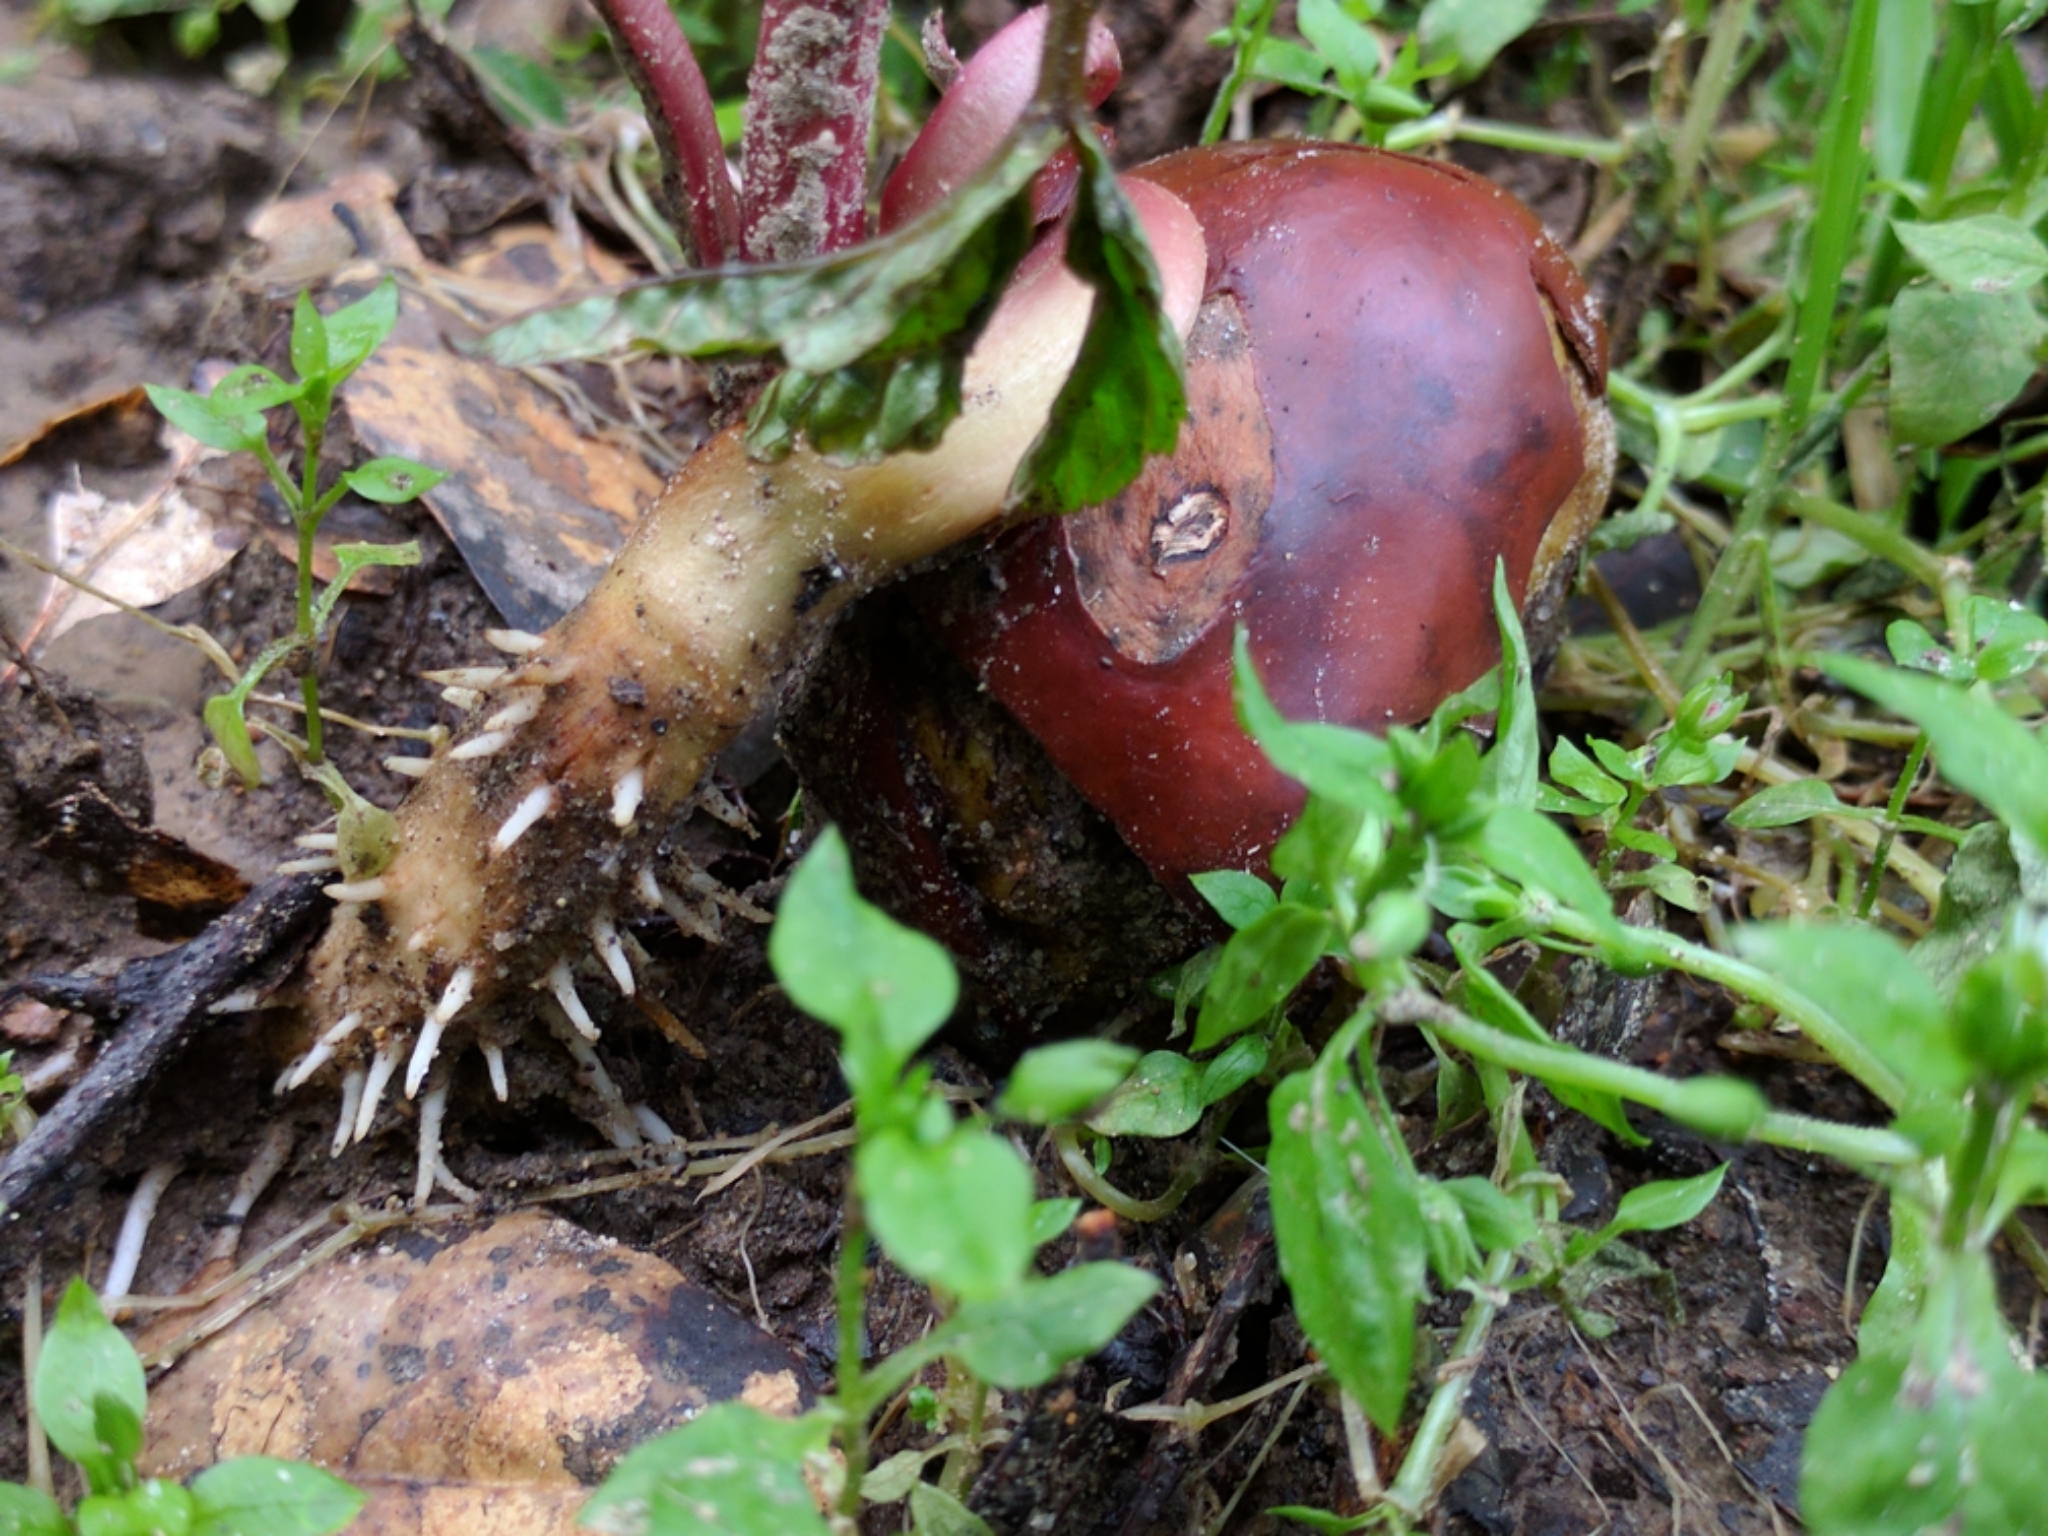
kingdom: Plantae
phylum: Tracheophyta
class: Magnoliopsida
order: Sapindales
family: Sapindaceae
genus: Aesculus
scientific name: Aesculus californica
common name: California buckeye
